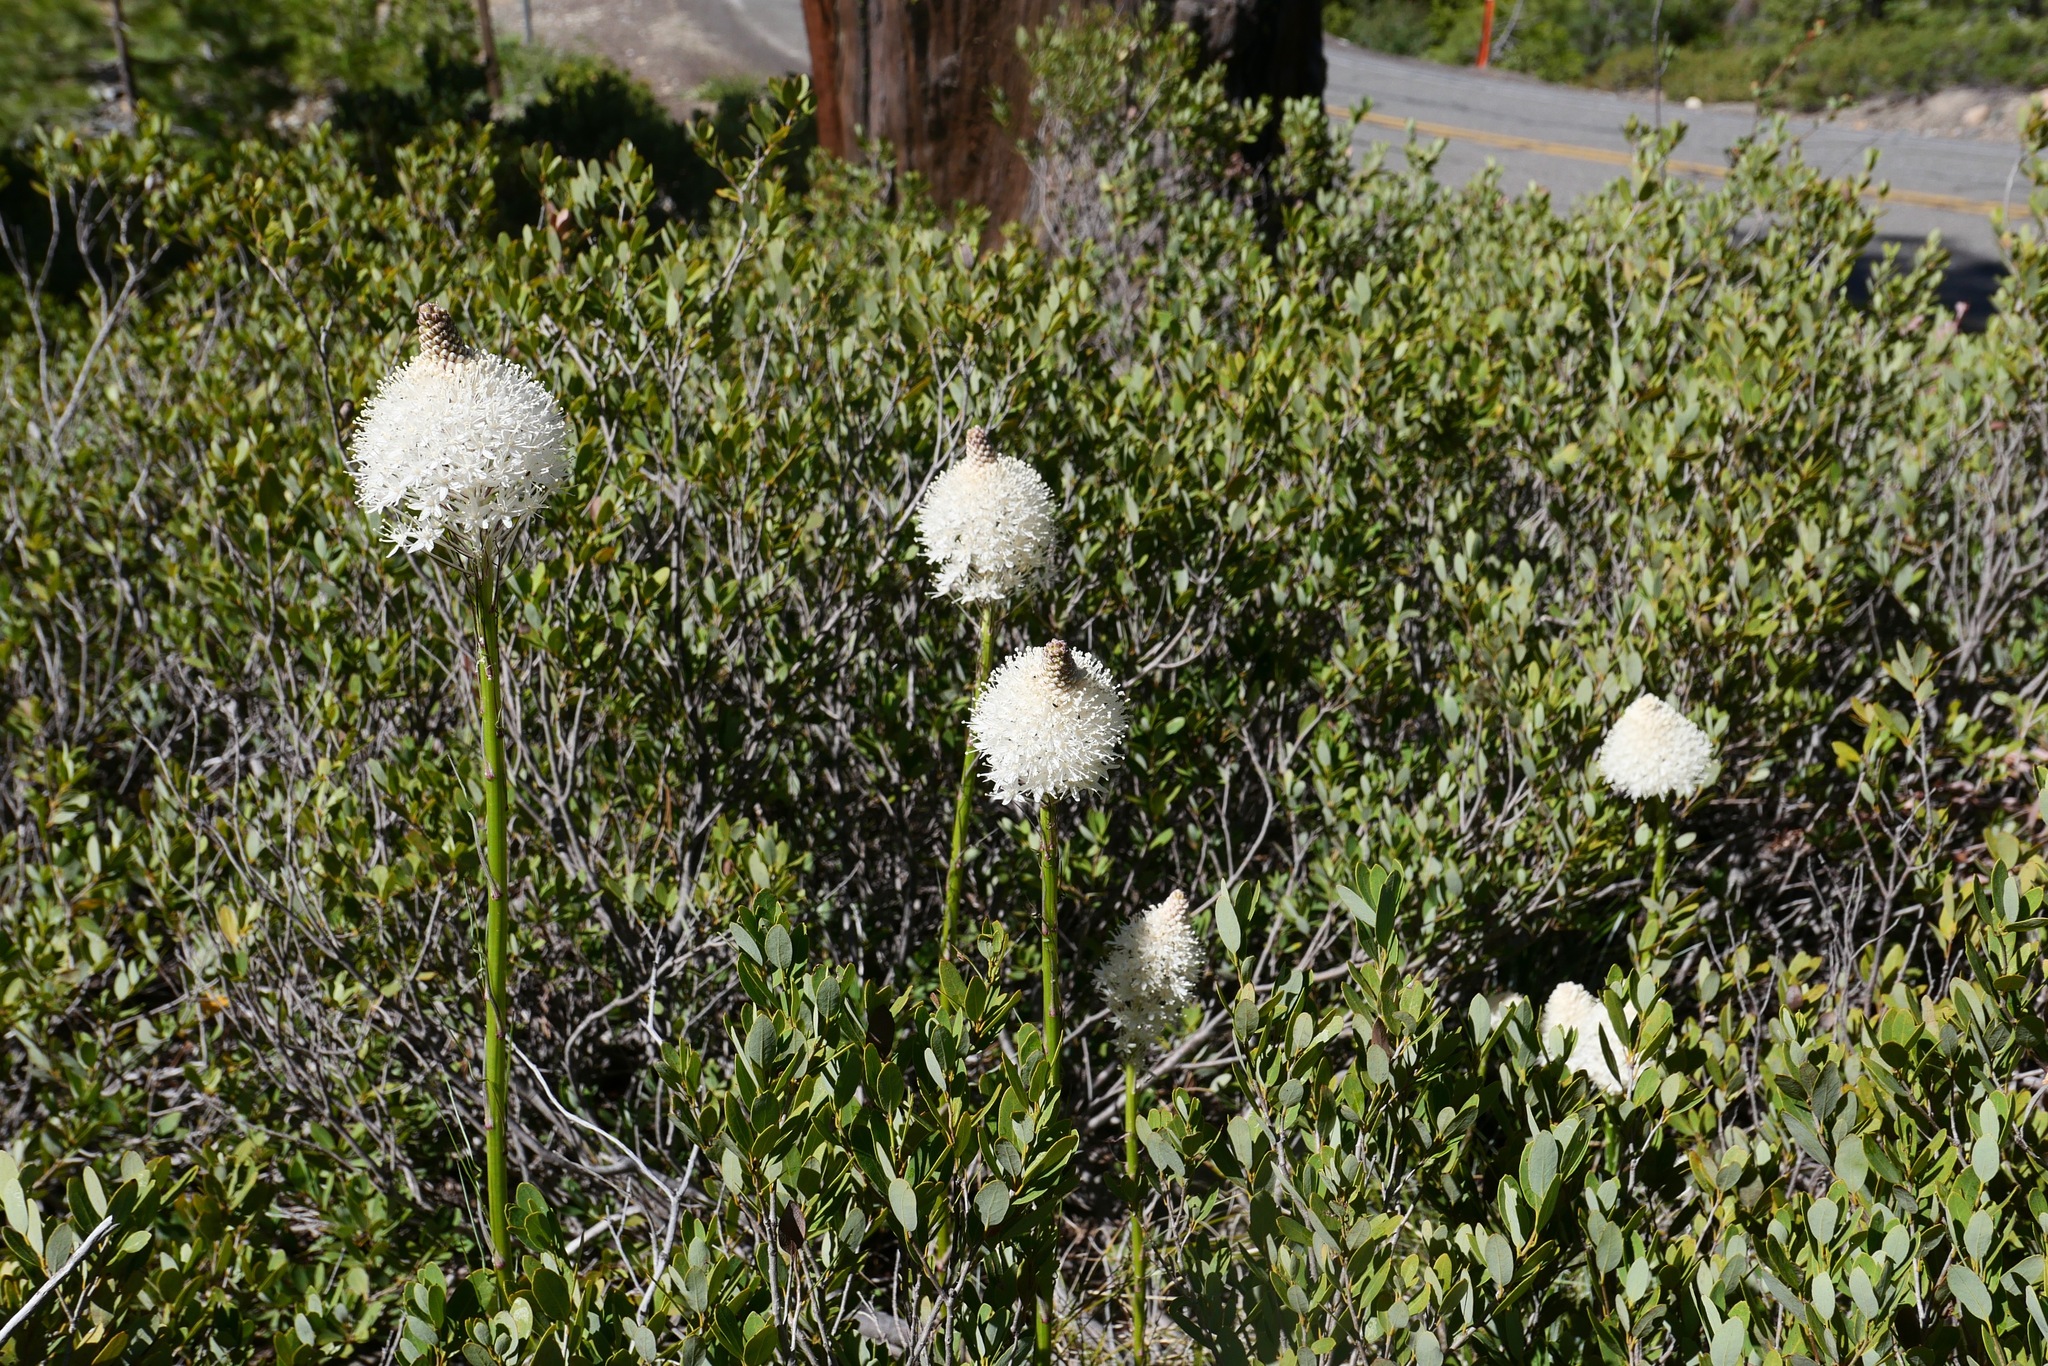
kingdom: Plantae
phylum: Tracheophyta
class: Liliopsida
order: Liliales
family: Melanthiaceae
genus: Xerophyllum
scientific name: Xerophyllum tenax
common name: Bear-grass
